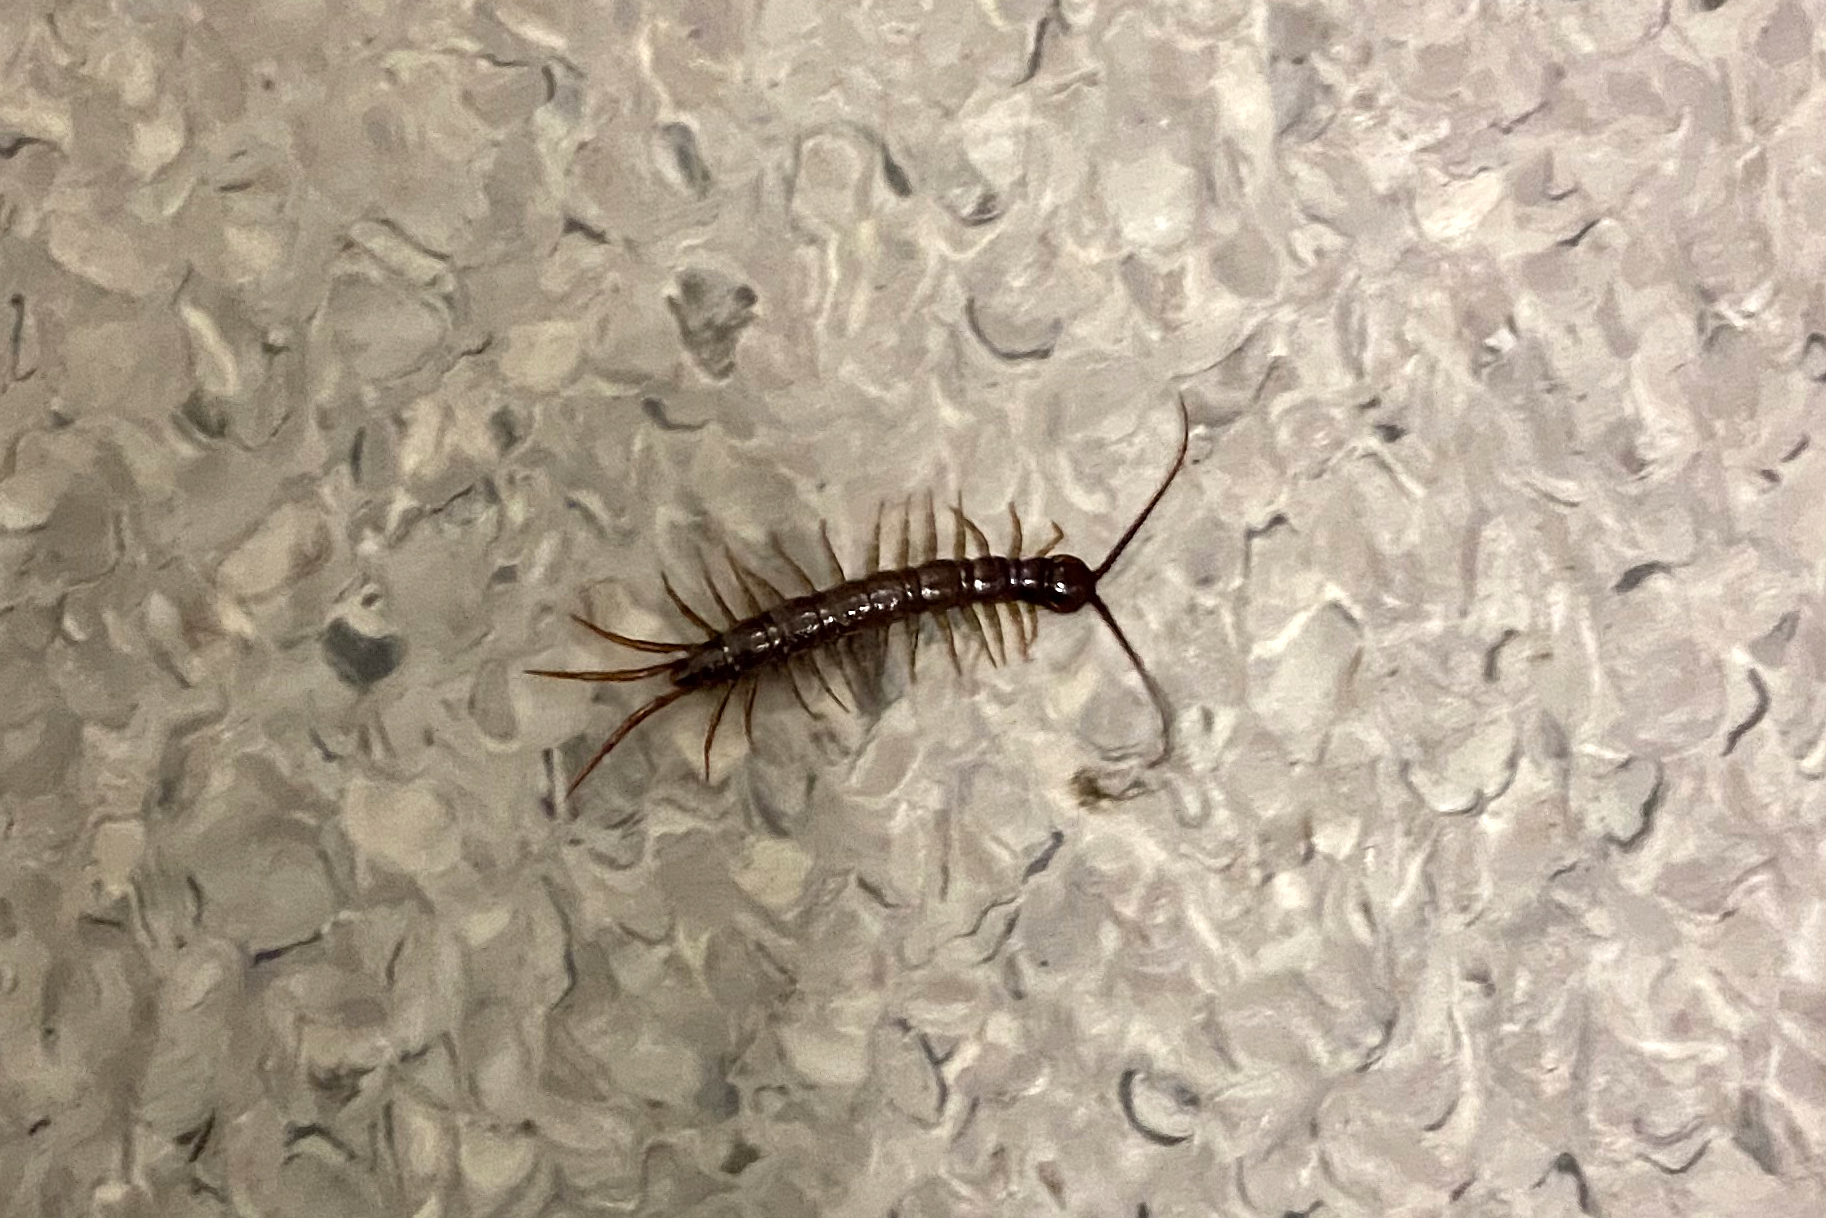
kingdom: Animalia
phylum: Arthropoda
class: Chilopoda
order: Lithobiomorpha
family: Lithobiidae
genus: Lithobius
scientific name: Lithobius peregrinus
